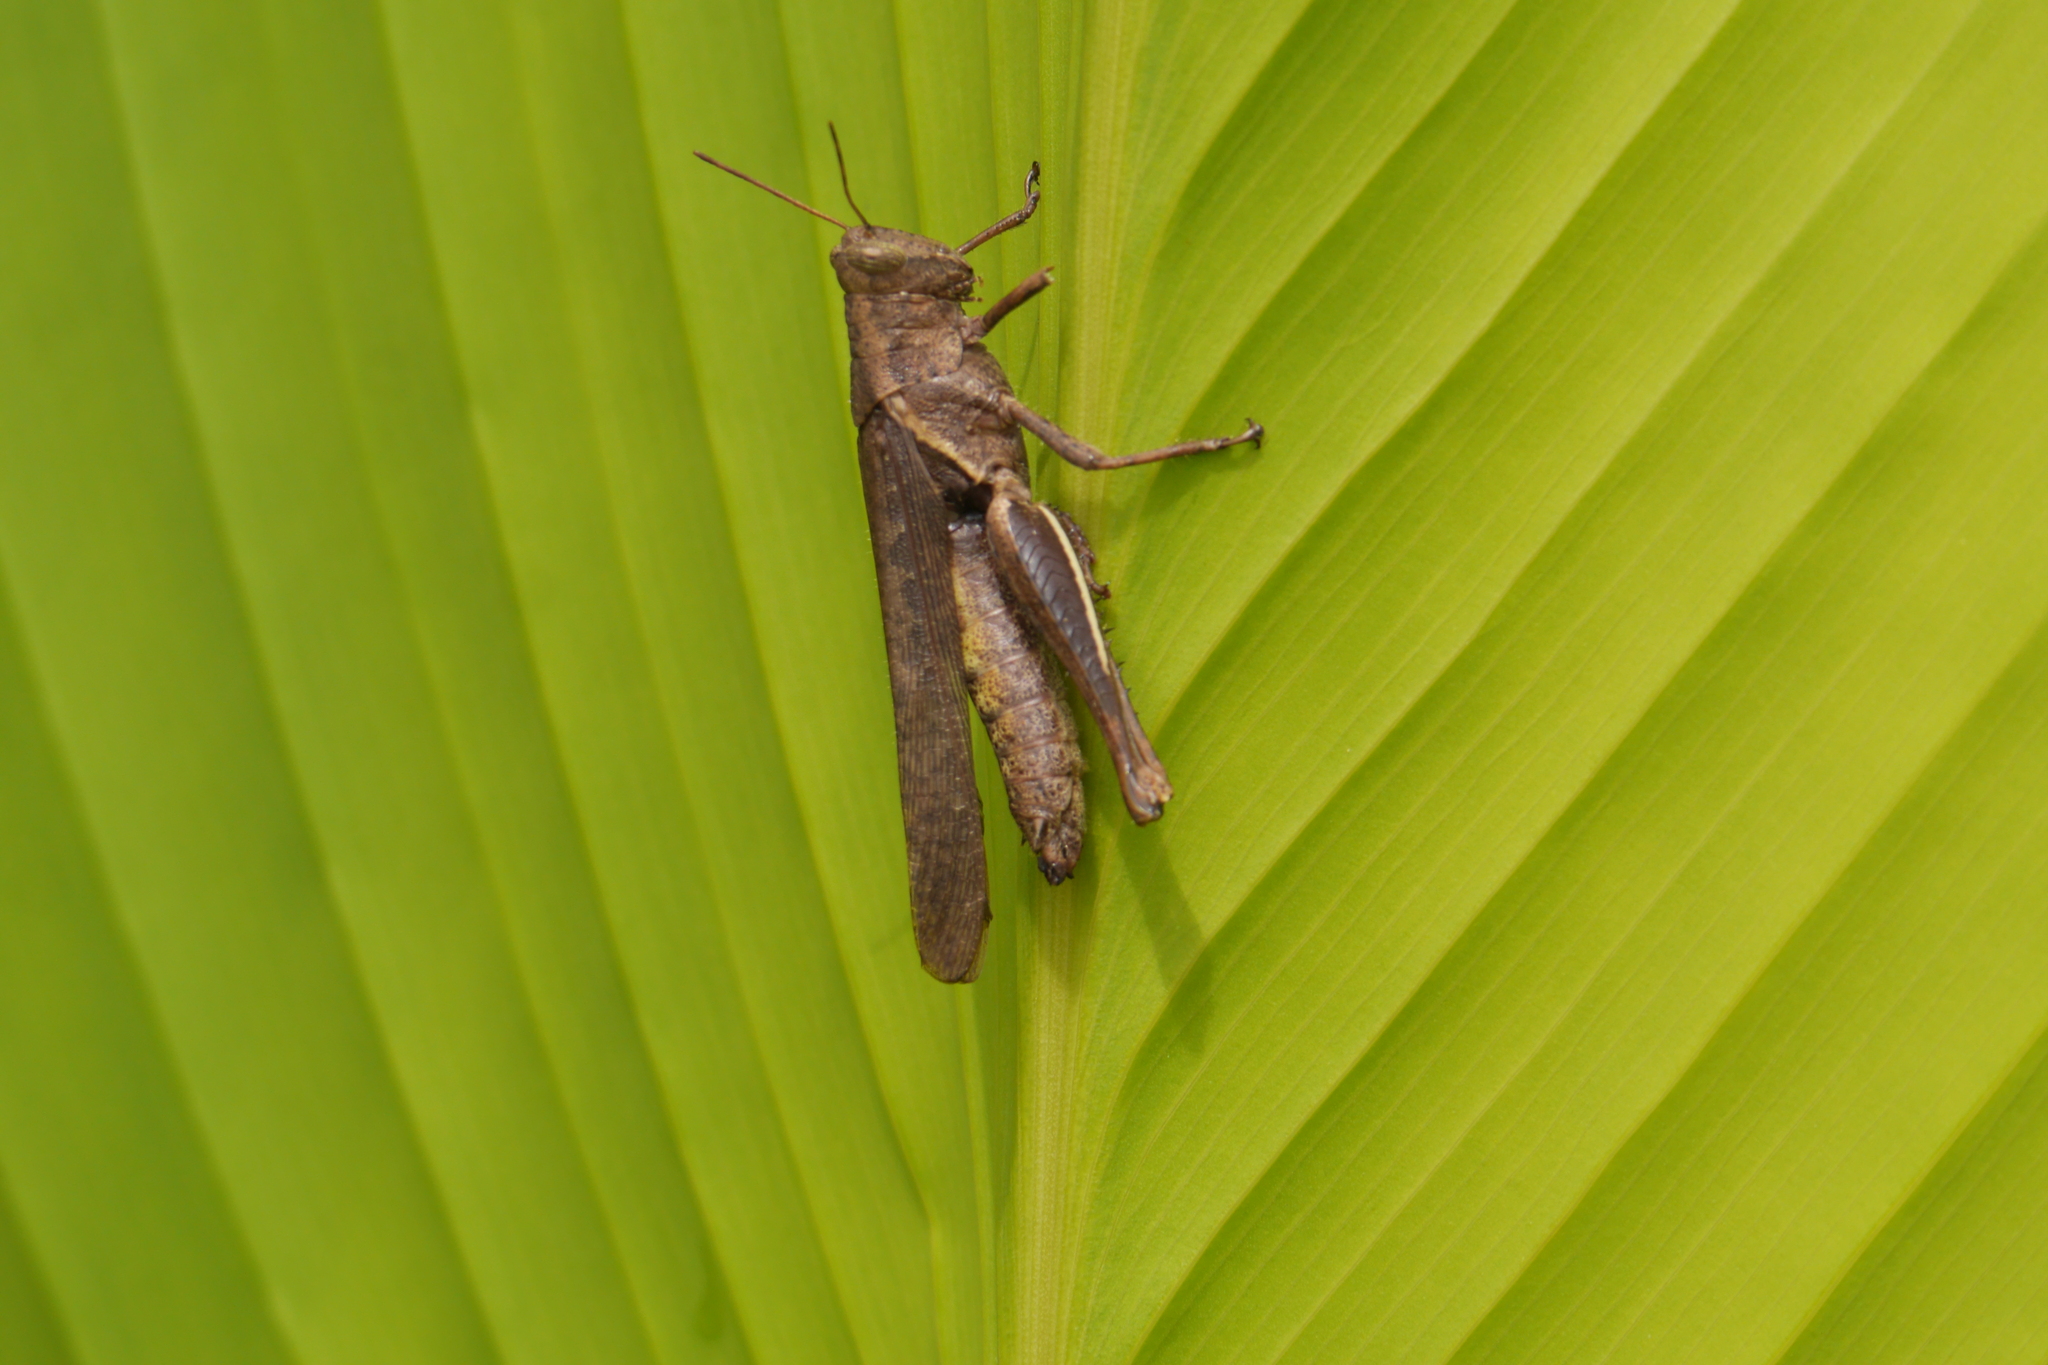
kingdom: Animalia
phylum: Arthropoda
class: Insecta
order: Orthoptera
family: Acrididae
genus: Abracris
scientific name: Abracris flavolineata
